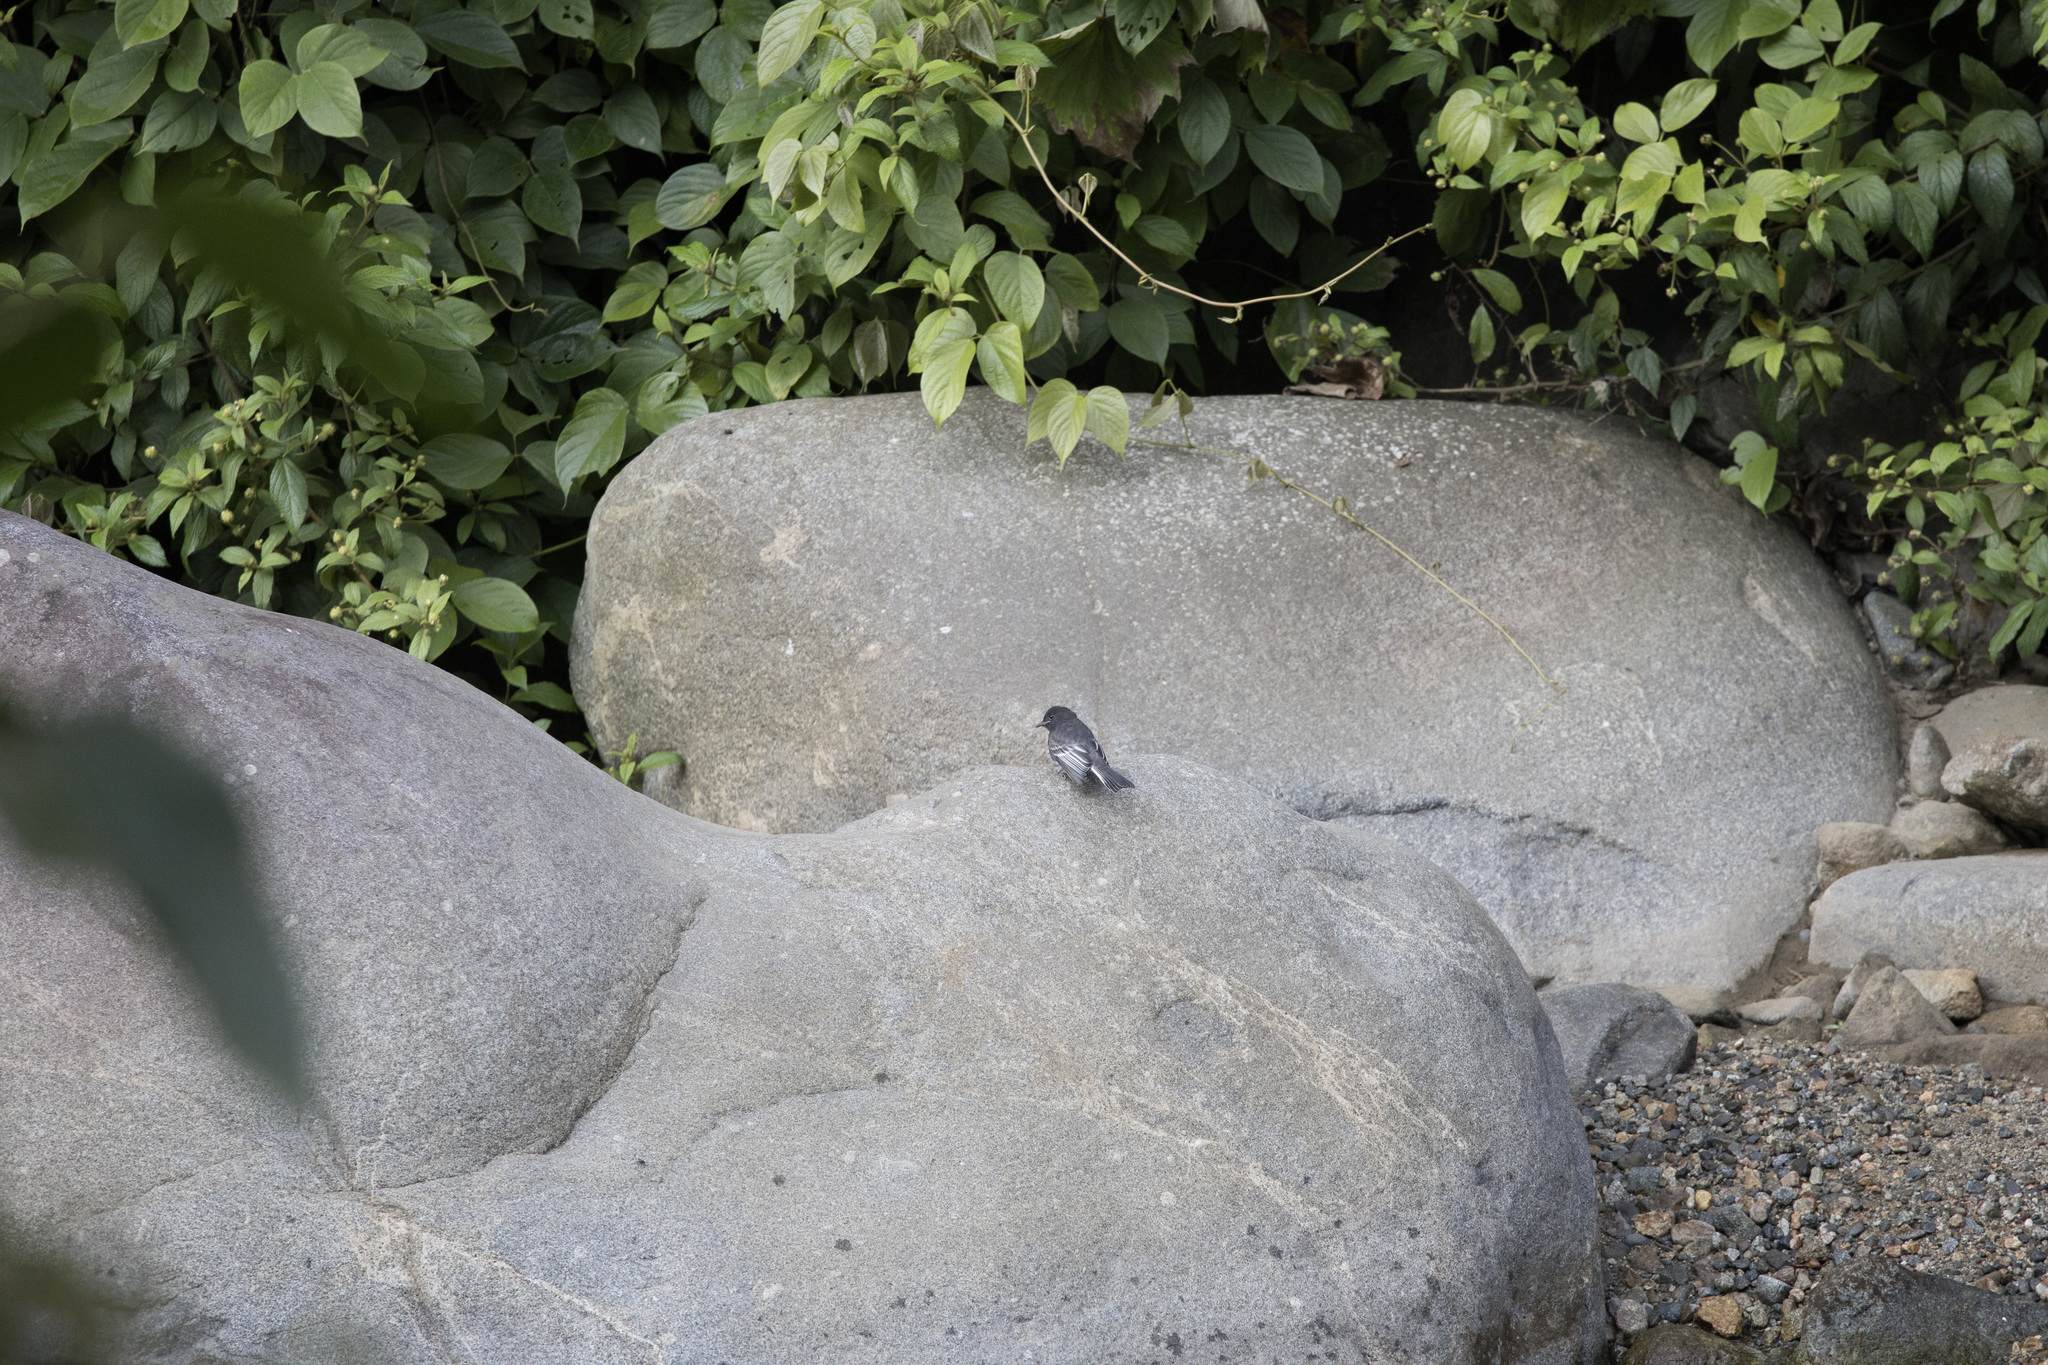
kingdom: Animalia
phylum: Chordata
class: Aves
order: Passeriformes
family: Tyrannidae
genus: Sayornis
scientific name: Sayornis nigricans
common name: Black phoebe
